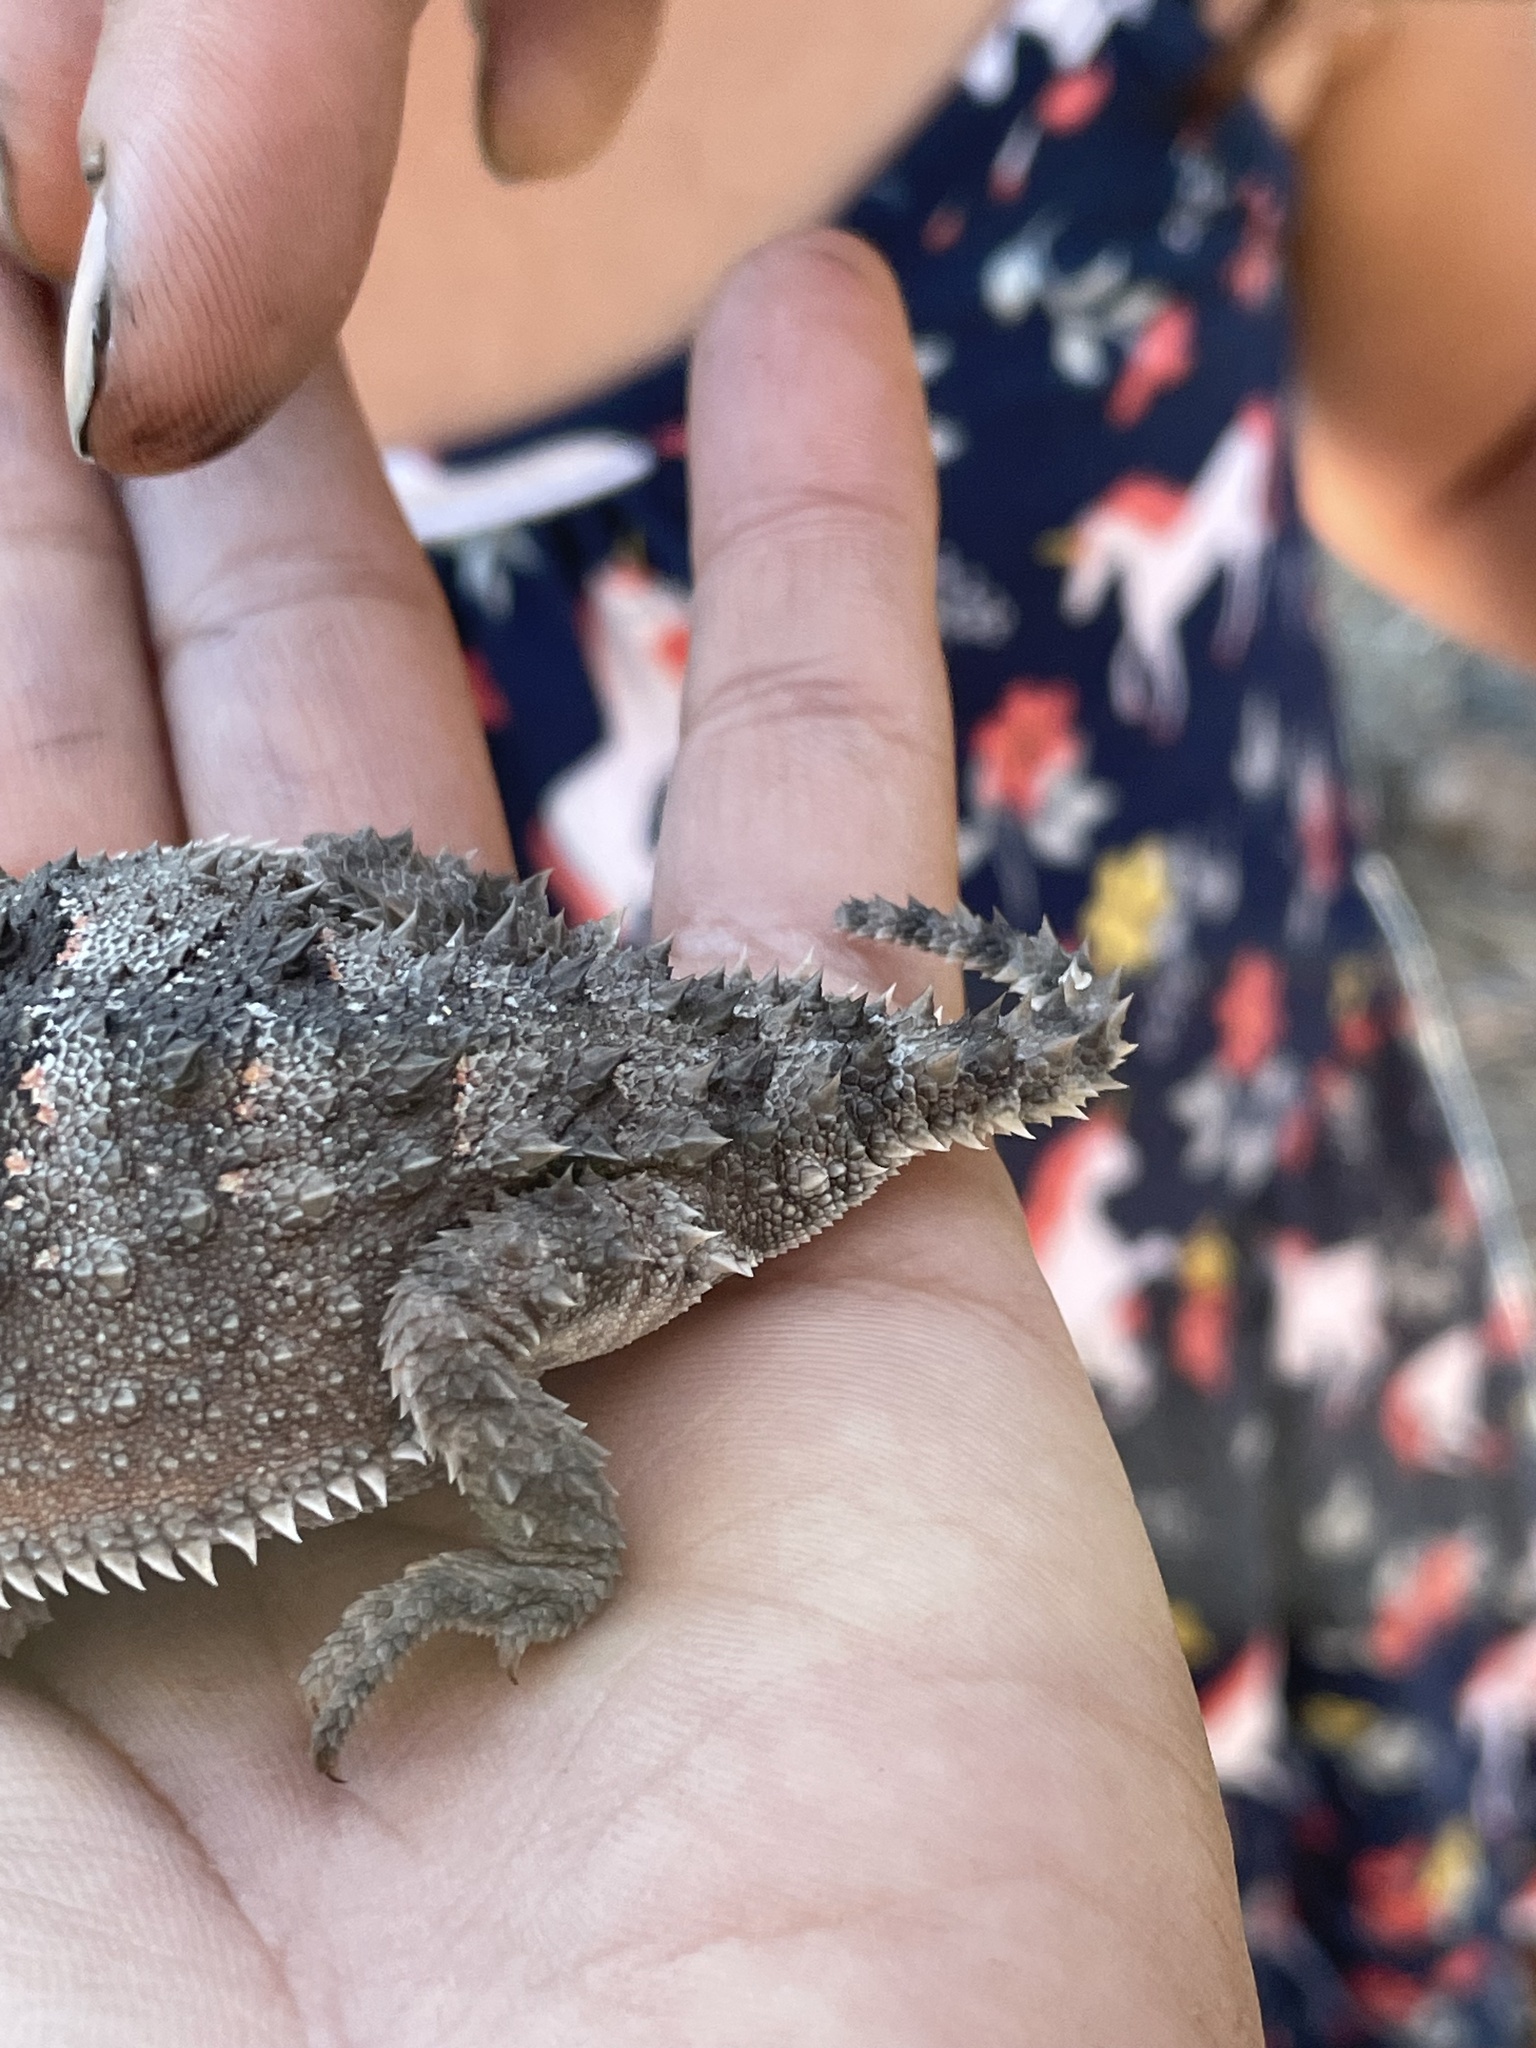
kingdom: Animalia
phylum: Chordata
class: Squamata
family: Phrynosomatidae
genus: Phrynosoma
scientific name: Phrynosoma hernandesi
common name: Greater short-horned lizard
